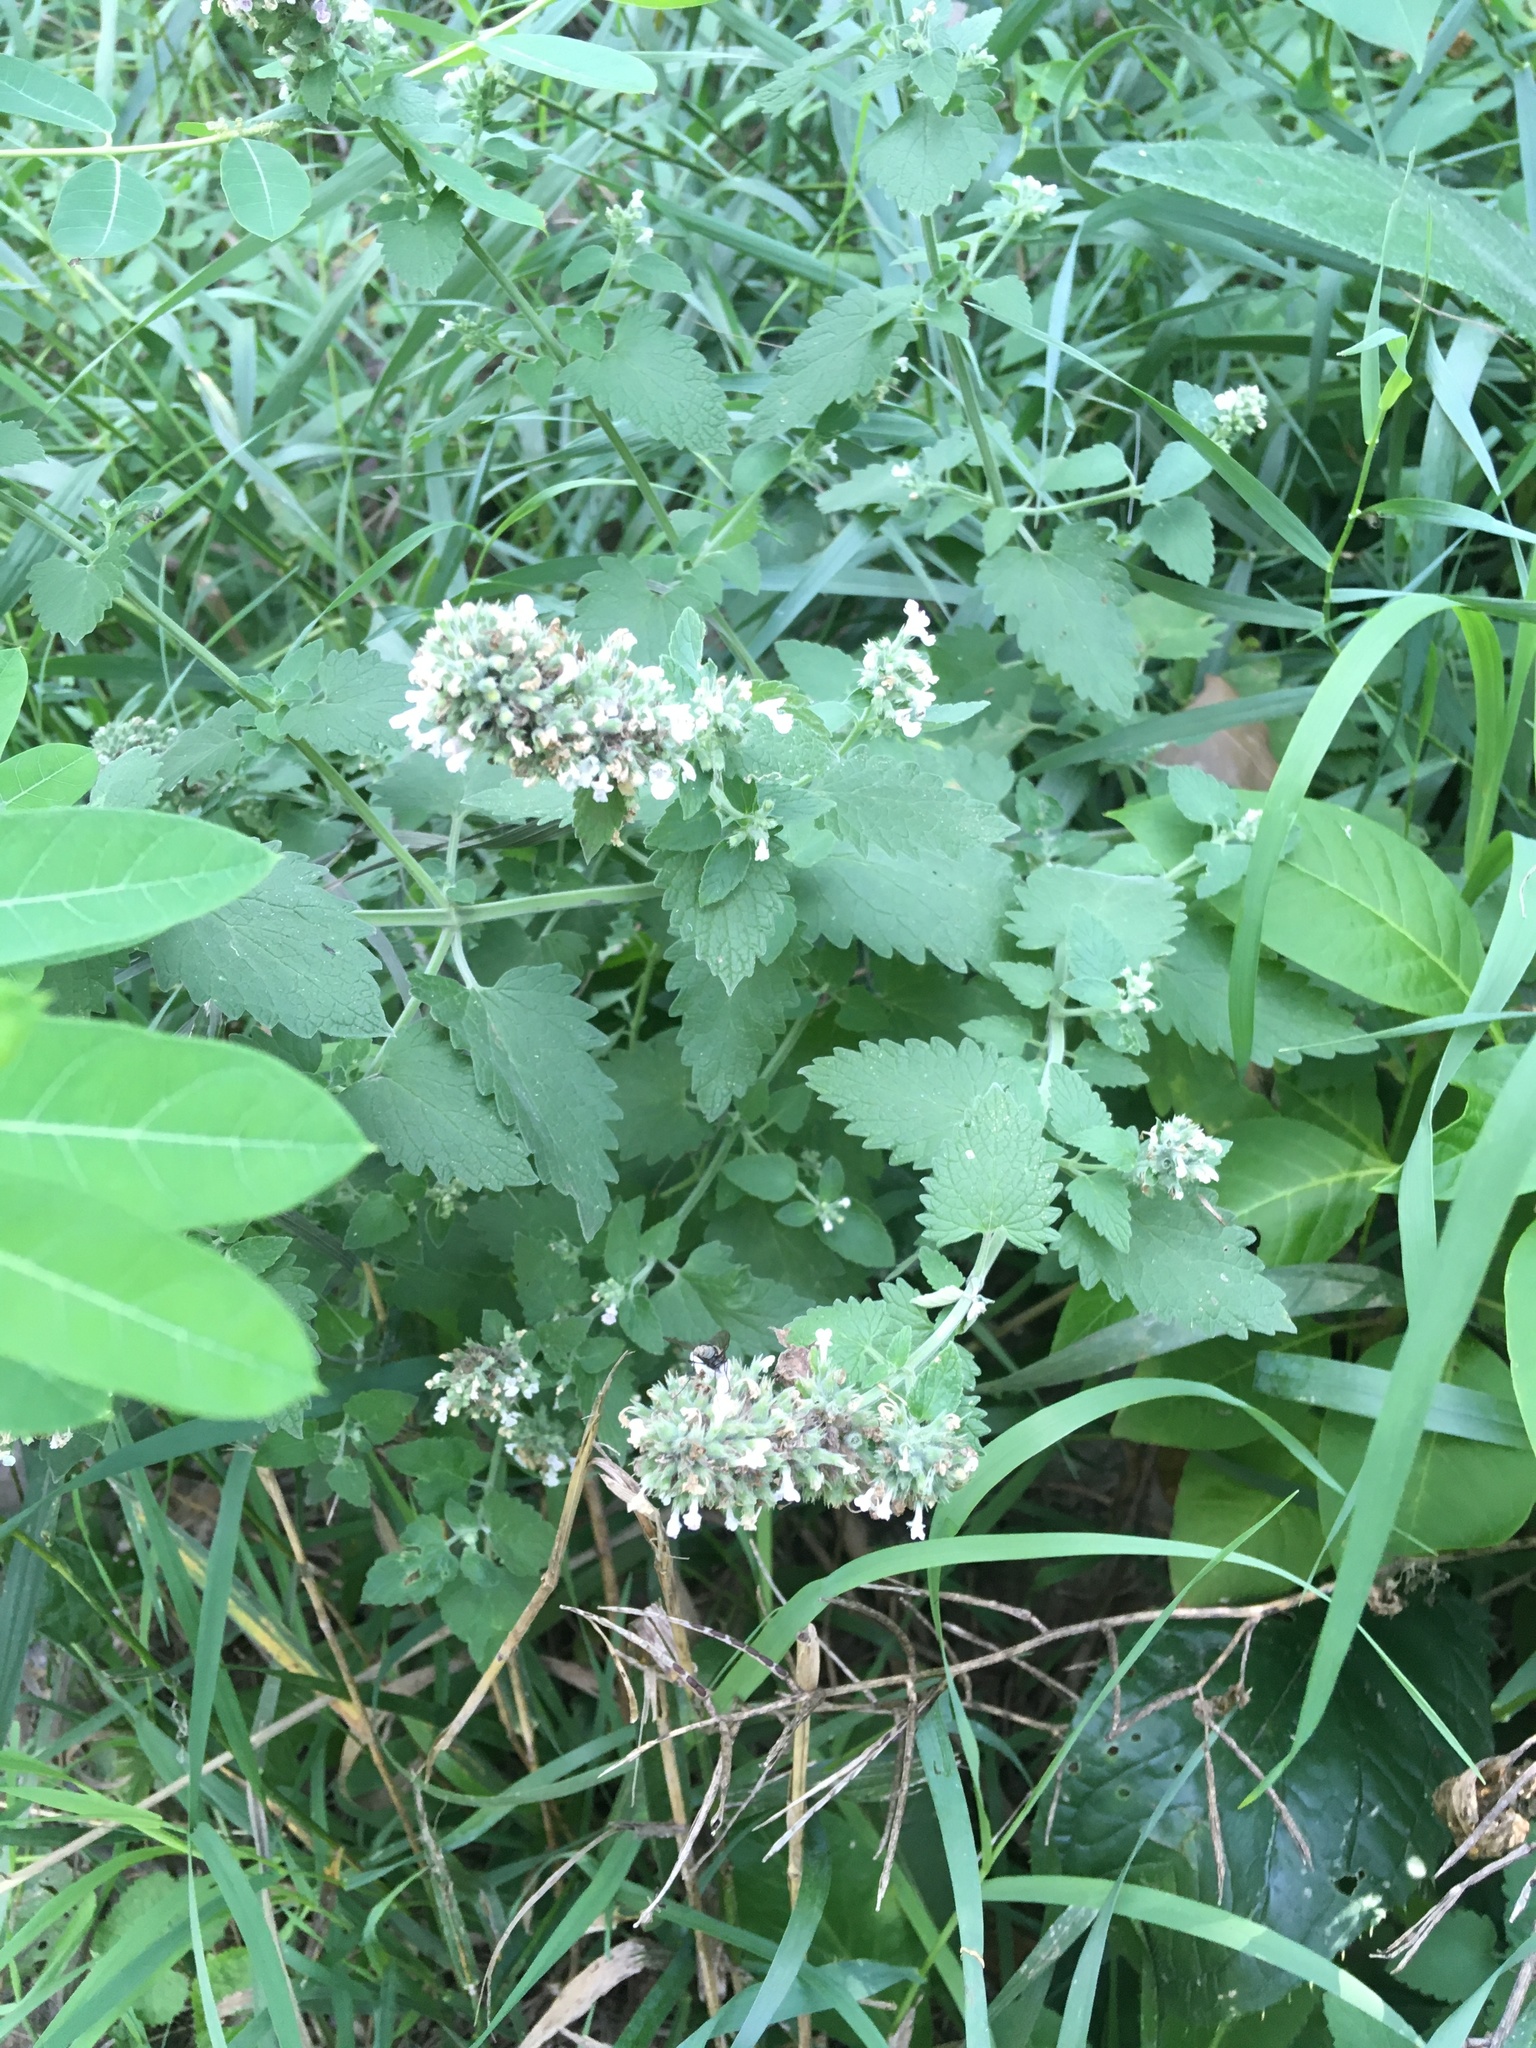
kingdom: Plantae
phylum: Tracheophyta
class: Magnoliopsida
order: Lamiales
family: Lamiaceae
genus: Nepeta
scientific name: Nepeta cataria
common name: Catnip
